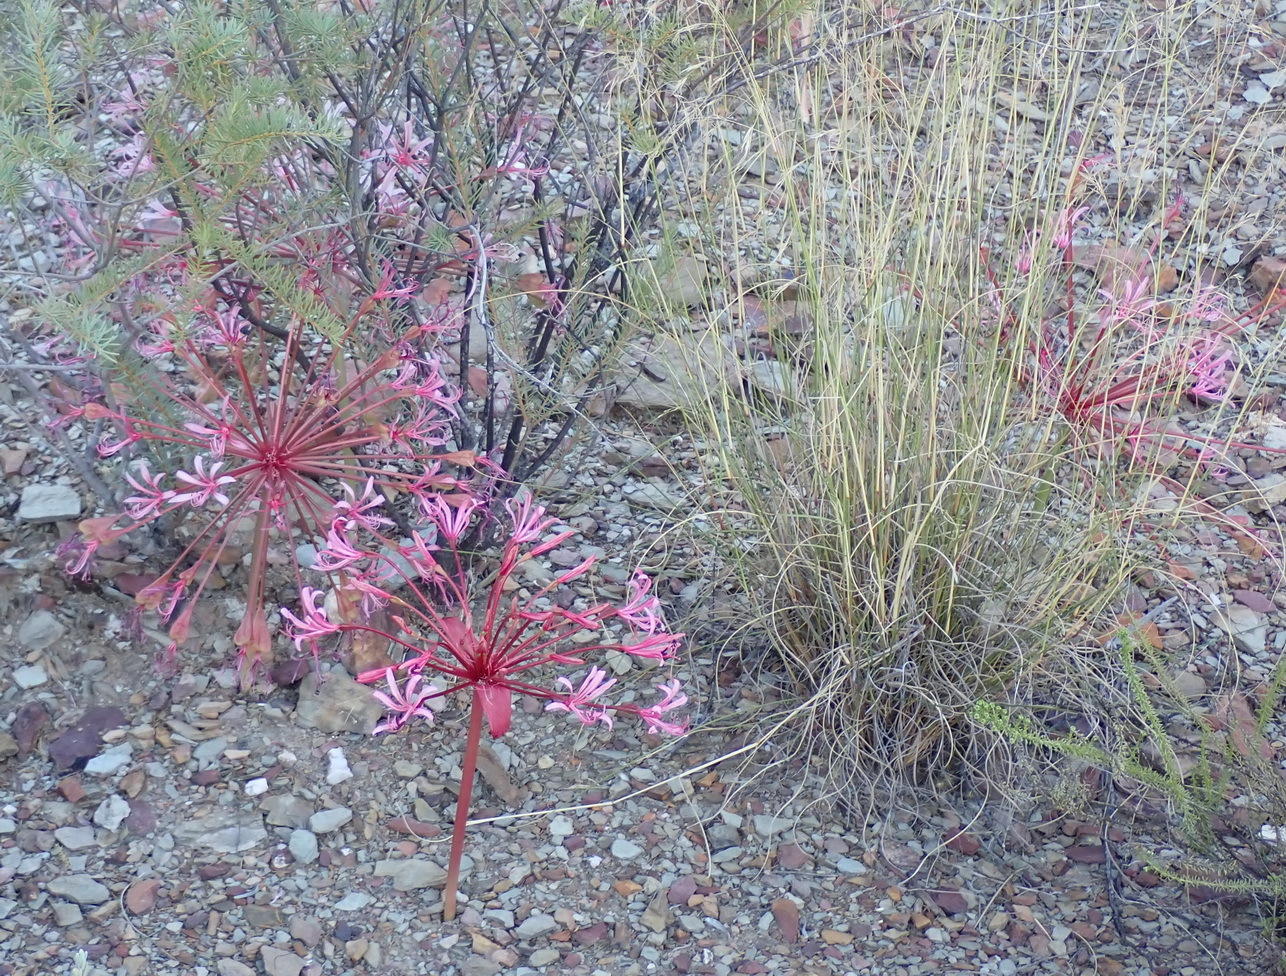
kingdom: Plantae
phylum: Tracheophyta
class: Liliopsida
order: Asparagales
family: Amaryllidaceae
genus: Brunsvigia
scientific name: Brunsvigia nervosa
